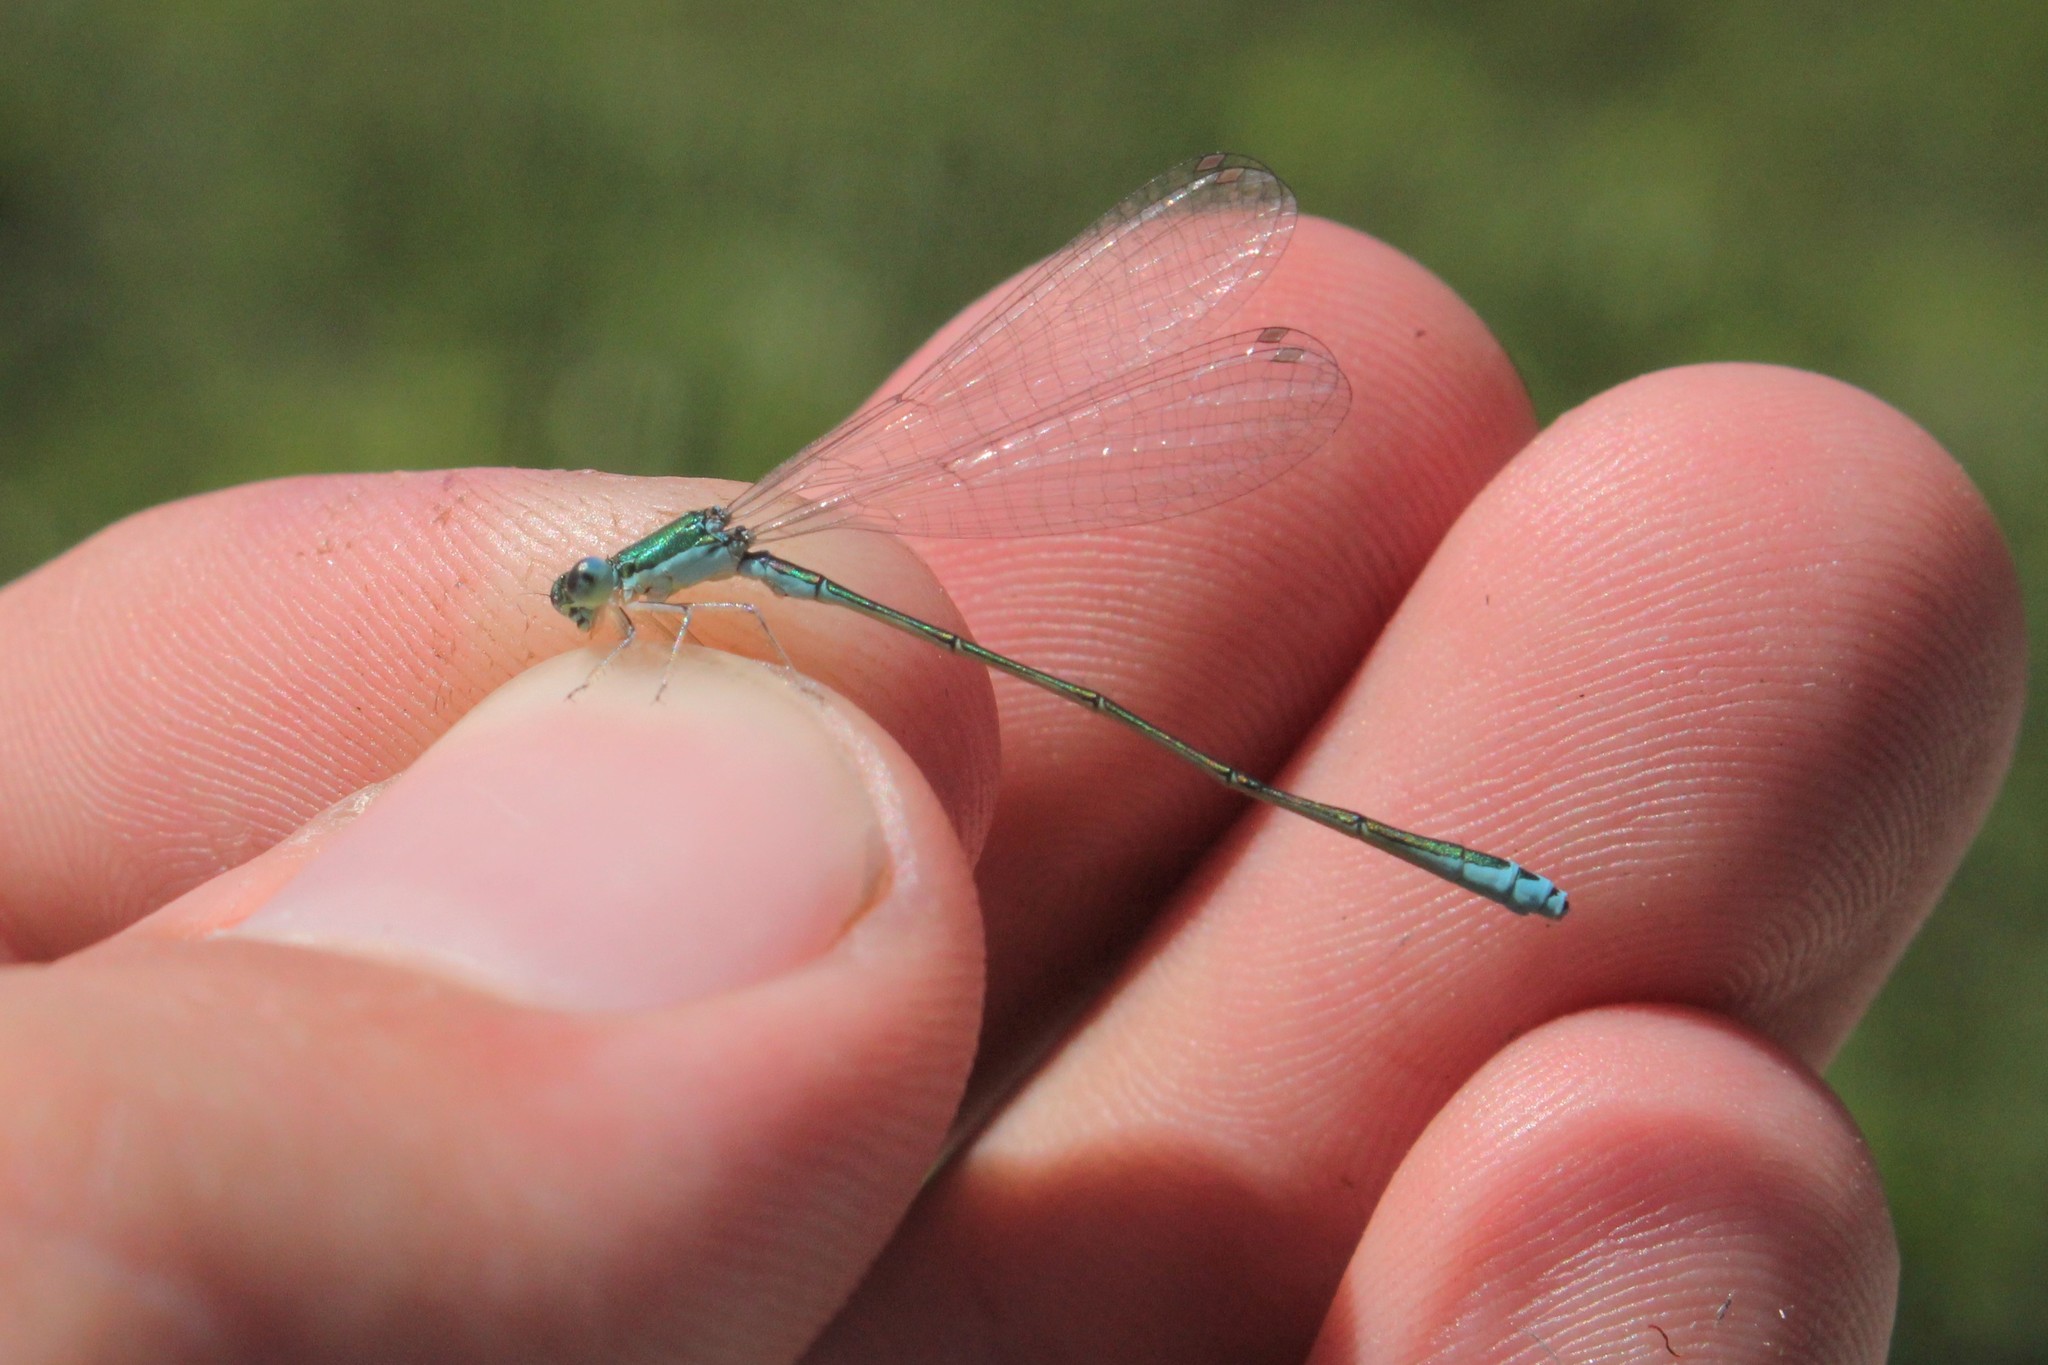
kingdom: Animalia
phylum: Arthropoda
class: Insecta
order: Odonata
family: Coenagrionidae
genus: Nehalennia
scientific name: Nehalennia irene
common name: Sedge sprite
